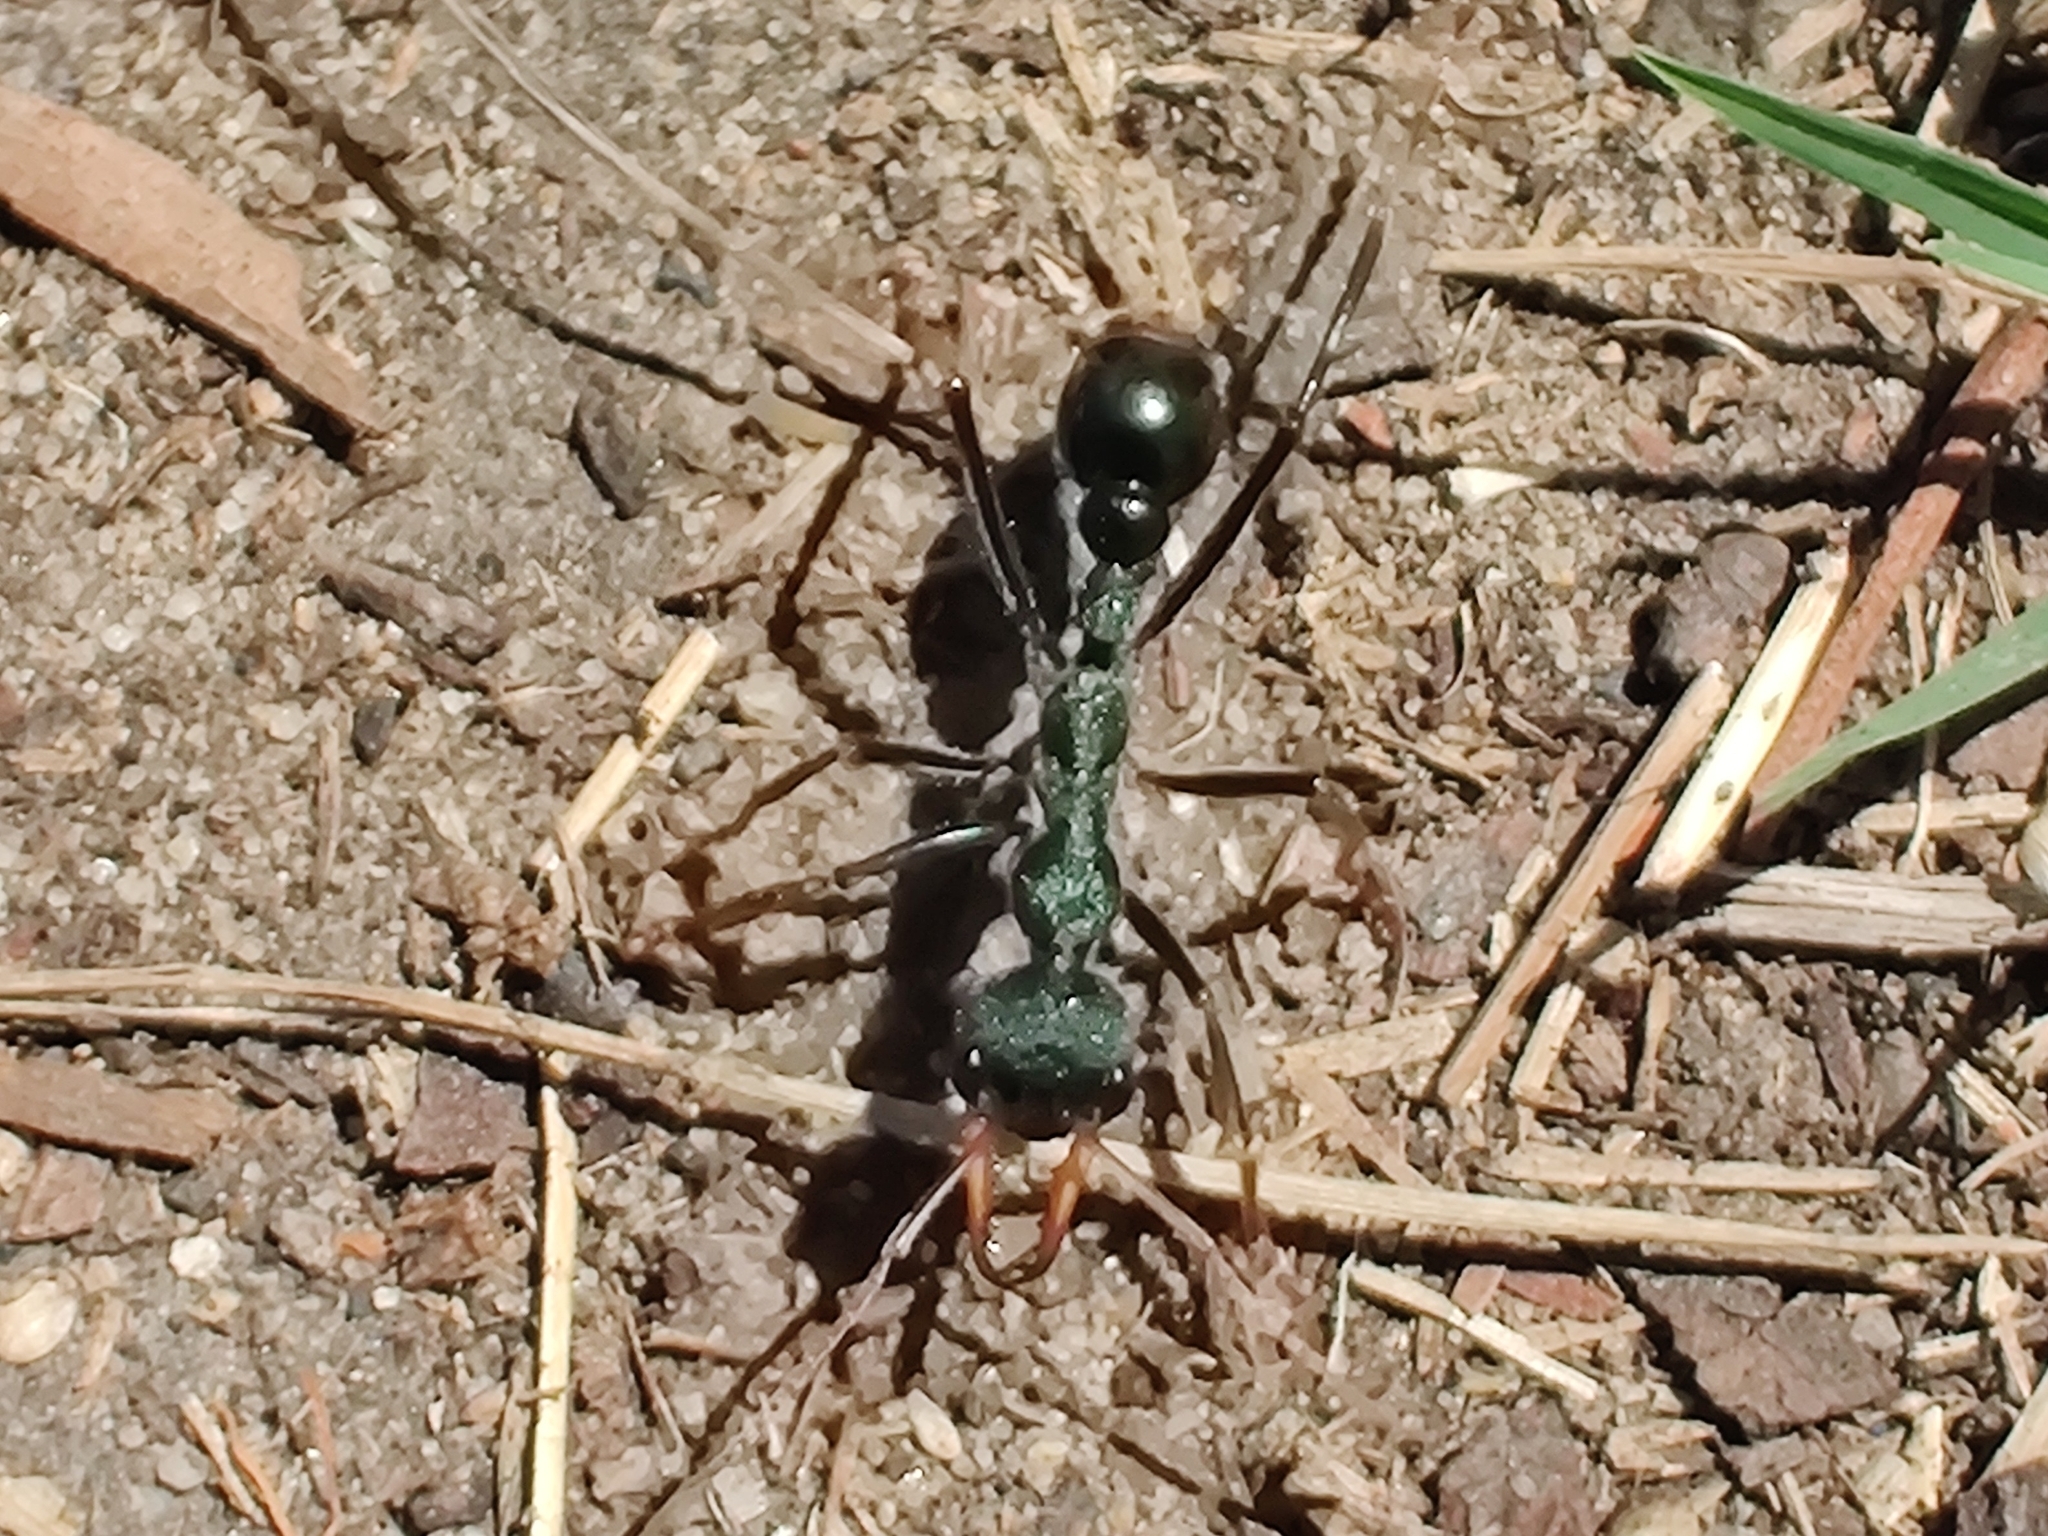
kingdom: Animalia
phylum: Arthropoda
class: Insecta
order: Hymenoptera
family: Formicidae
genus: Myrmecia
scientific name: Myrmecia tarsata
